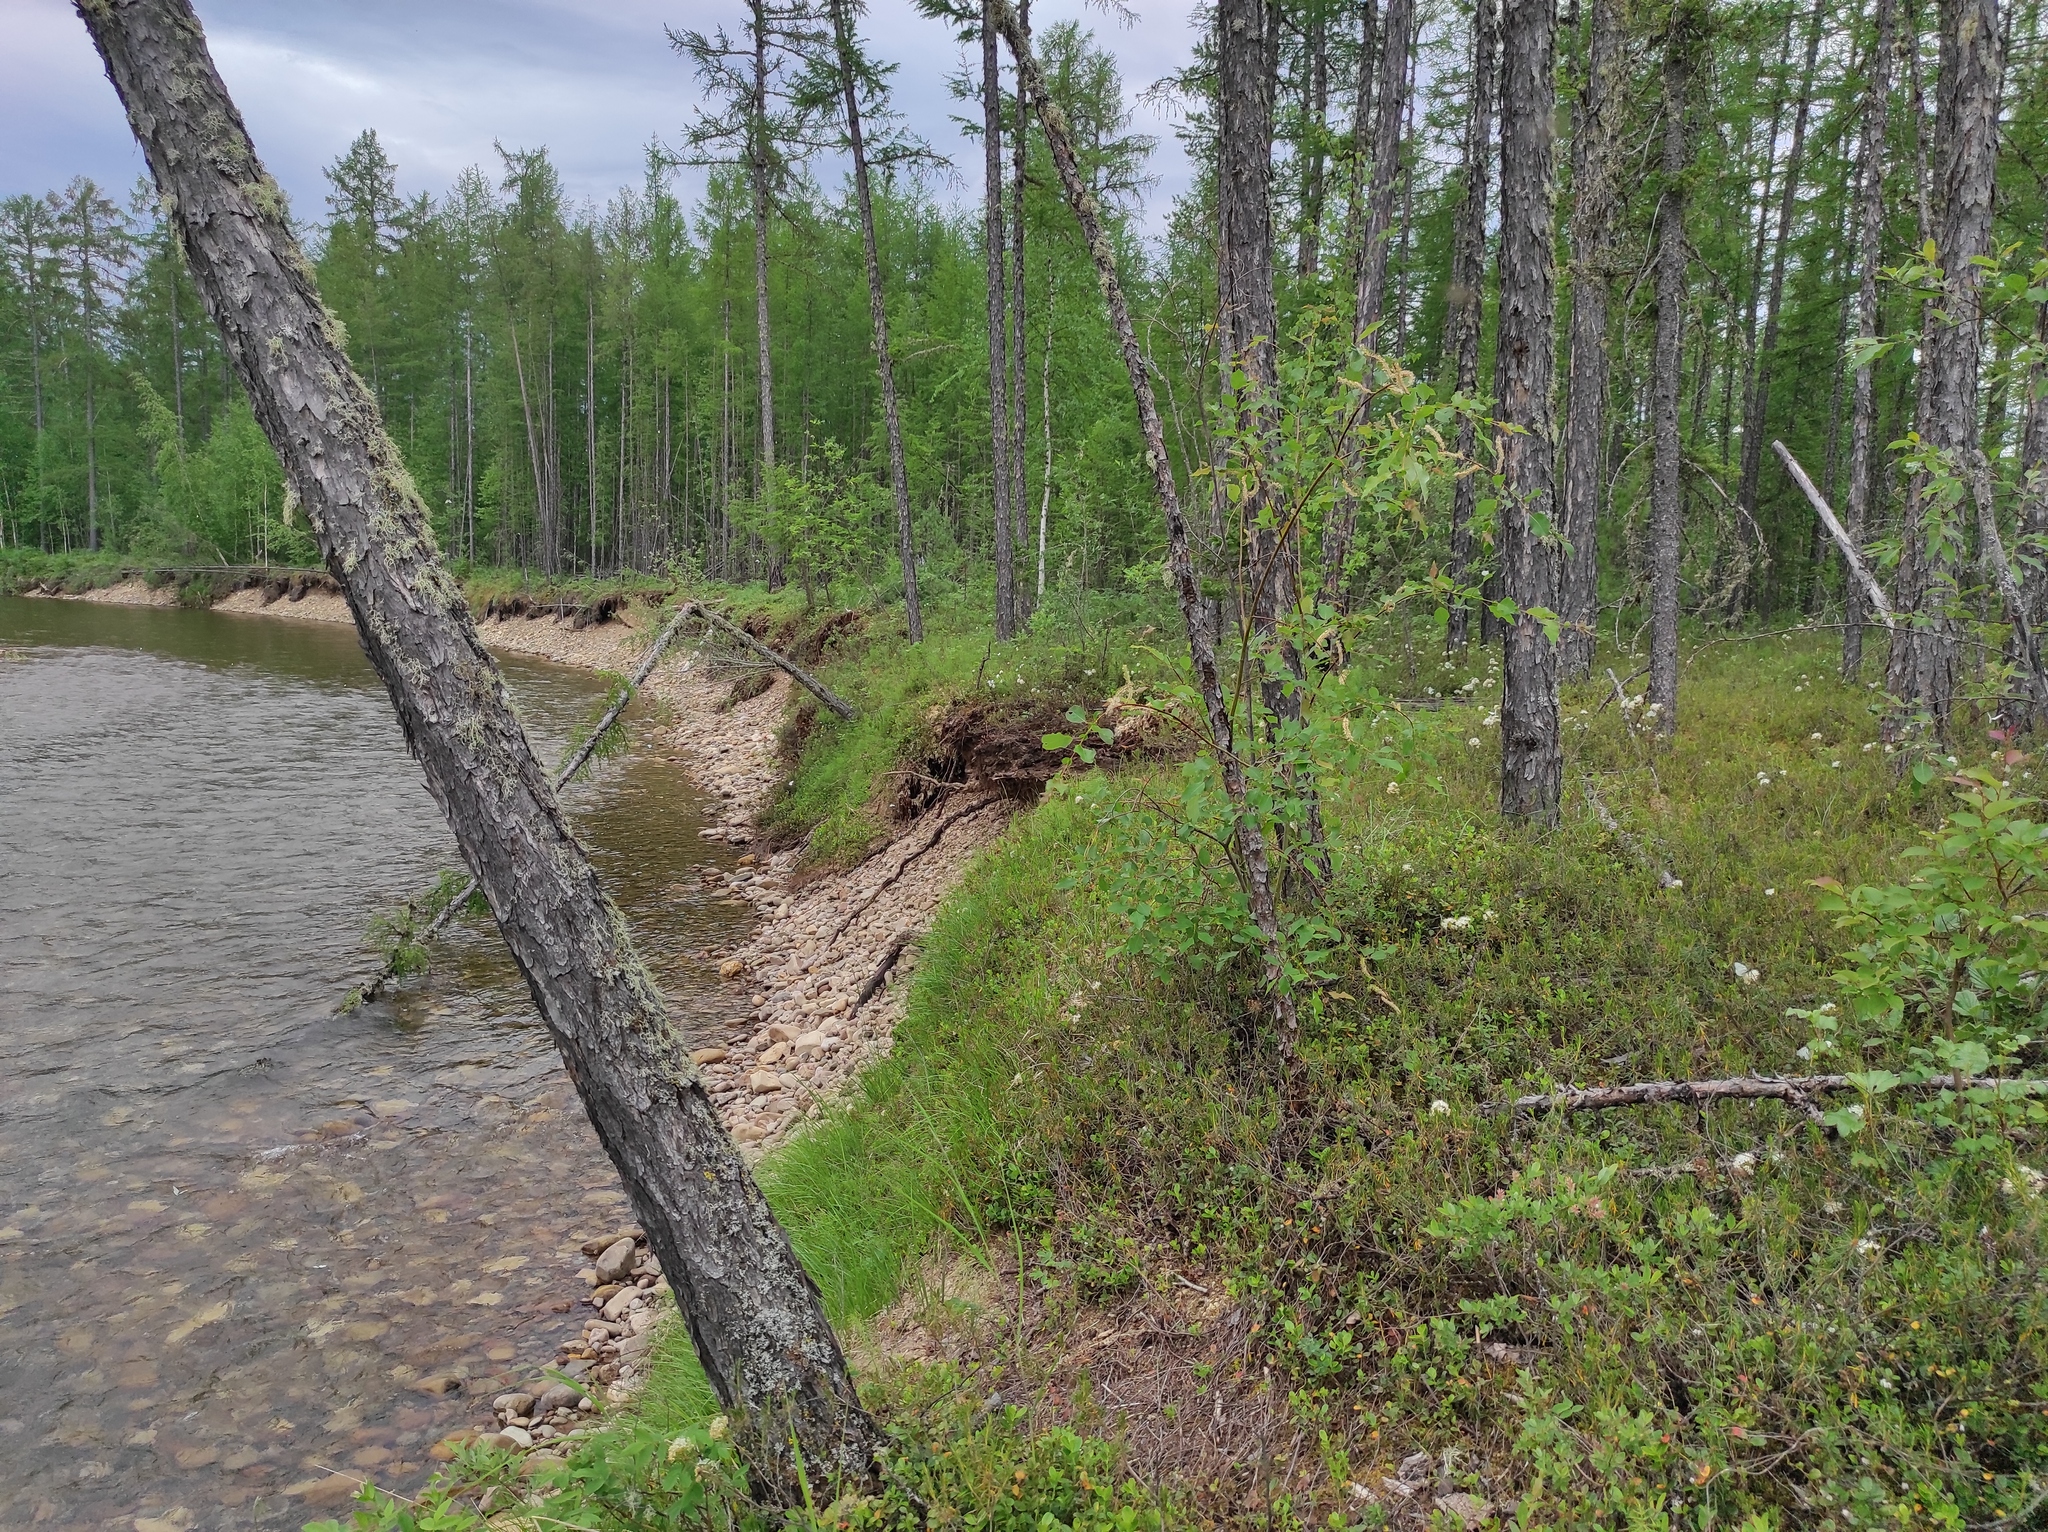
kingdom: Plantae
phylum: Tracheophyta
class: Magnoliopsida
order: Ericales
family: Ericaceae
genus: Rhododendron
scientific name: Rhododendron tomentosum
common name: Marsh labrador tea
